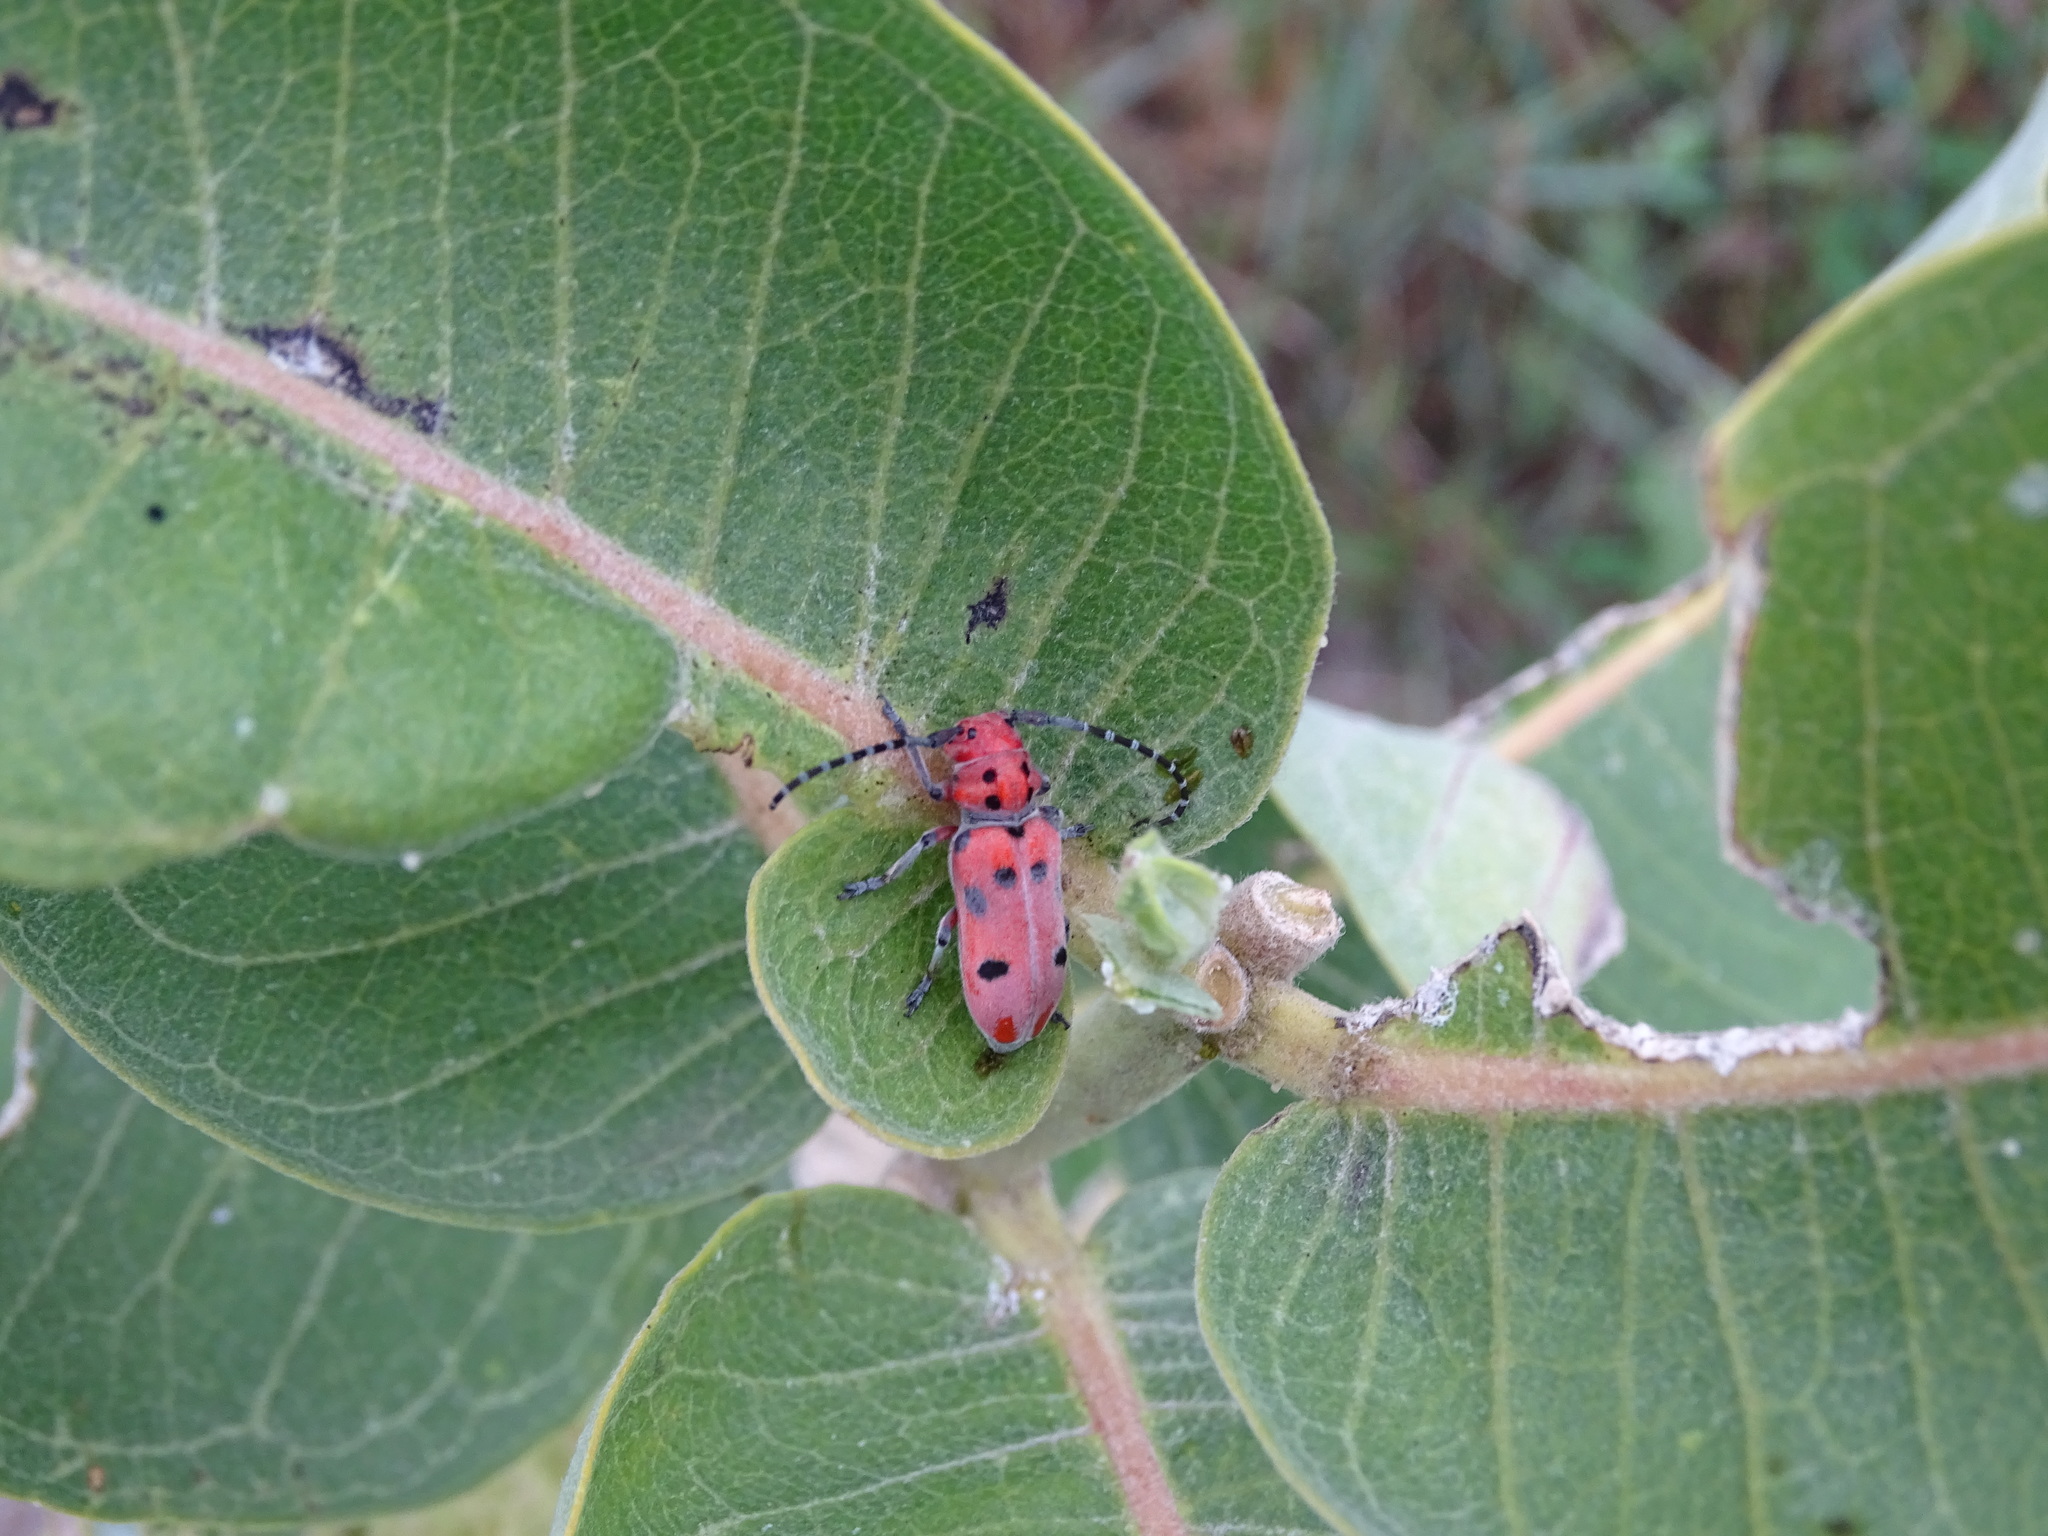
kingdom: Animalia
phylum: Arthropoda
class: Insecta
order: Coleoptera
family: Cerambycidae
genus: Tetraopes
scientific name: Tetraopes femoratus
